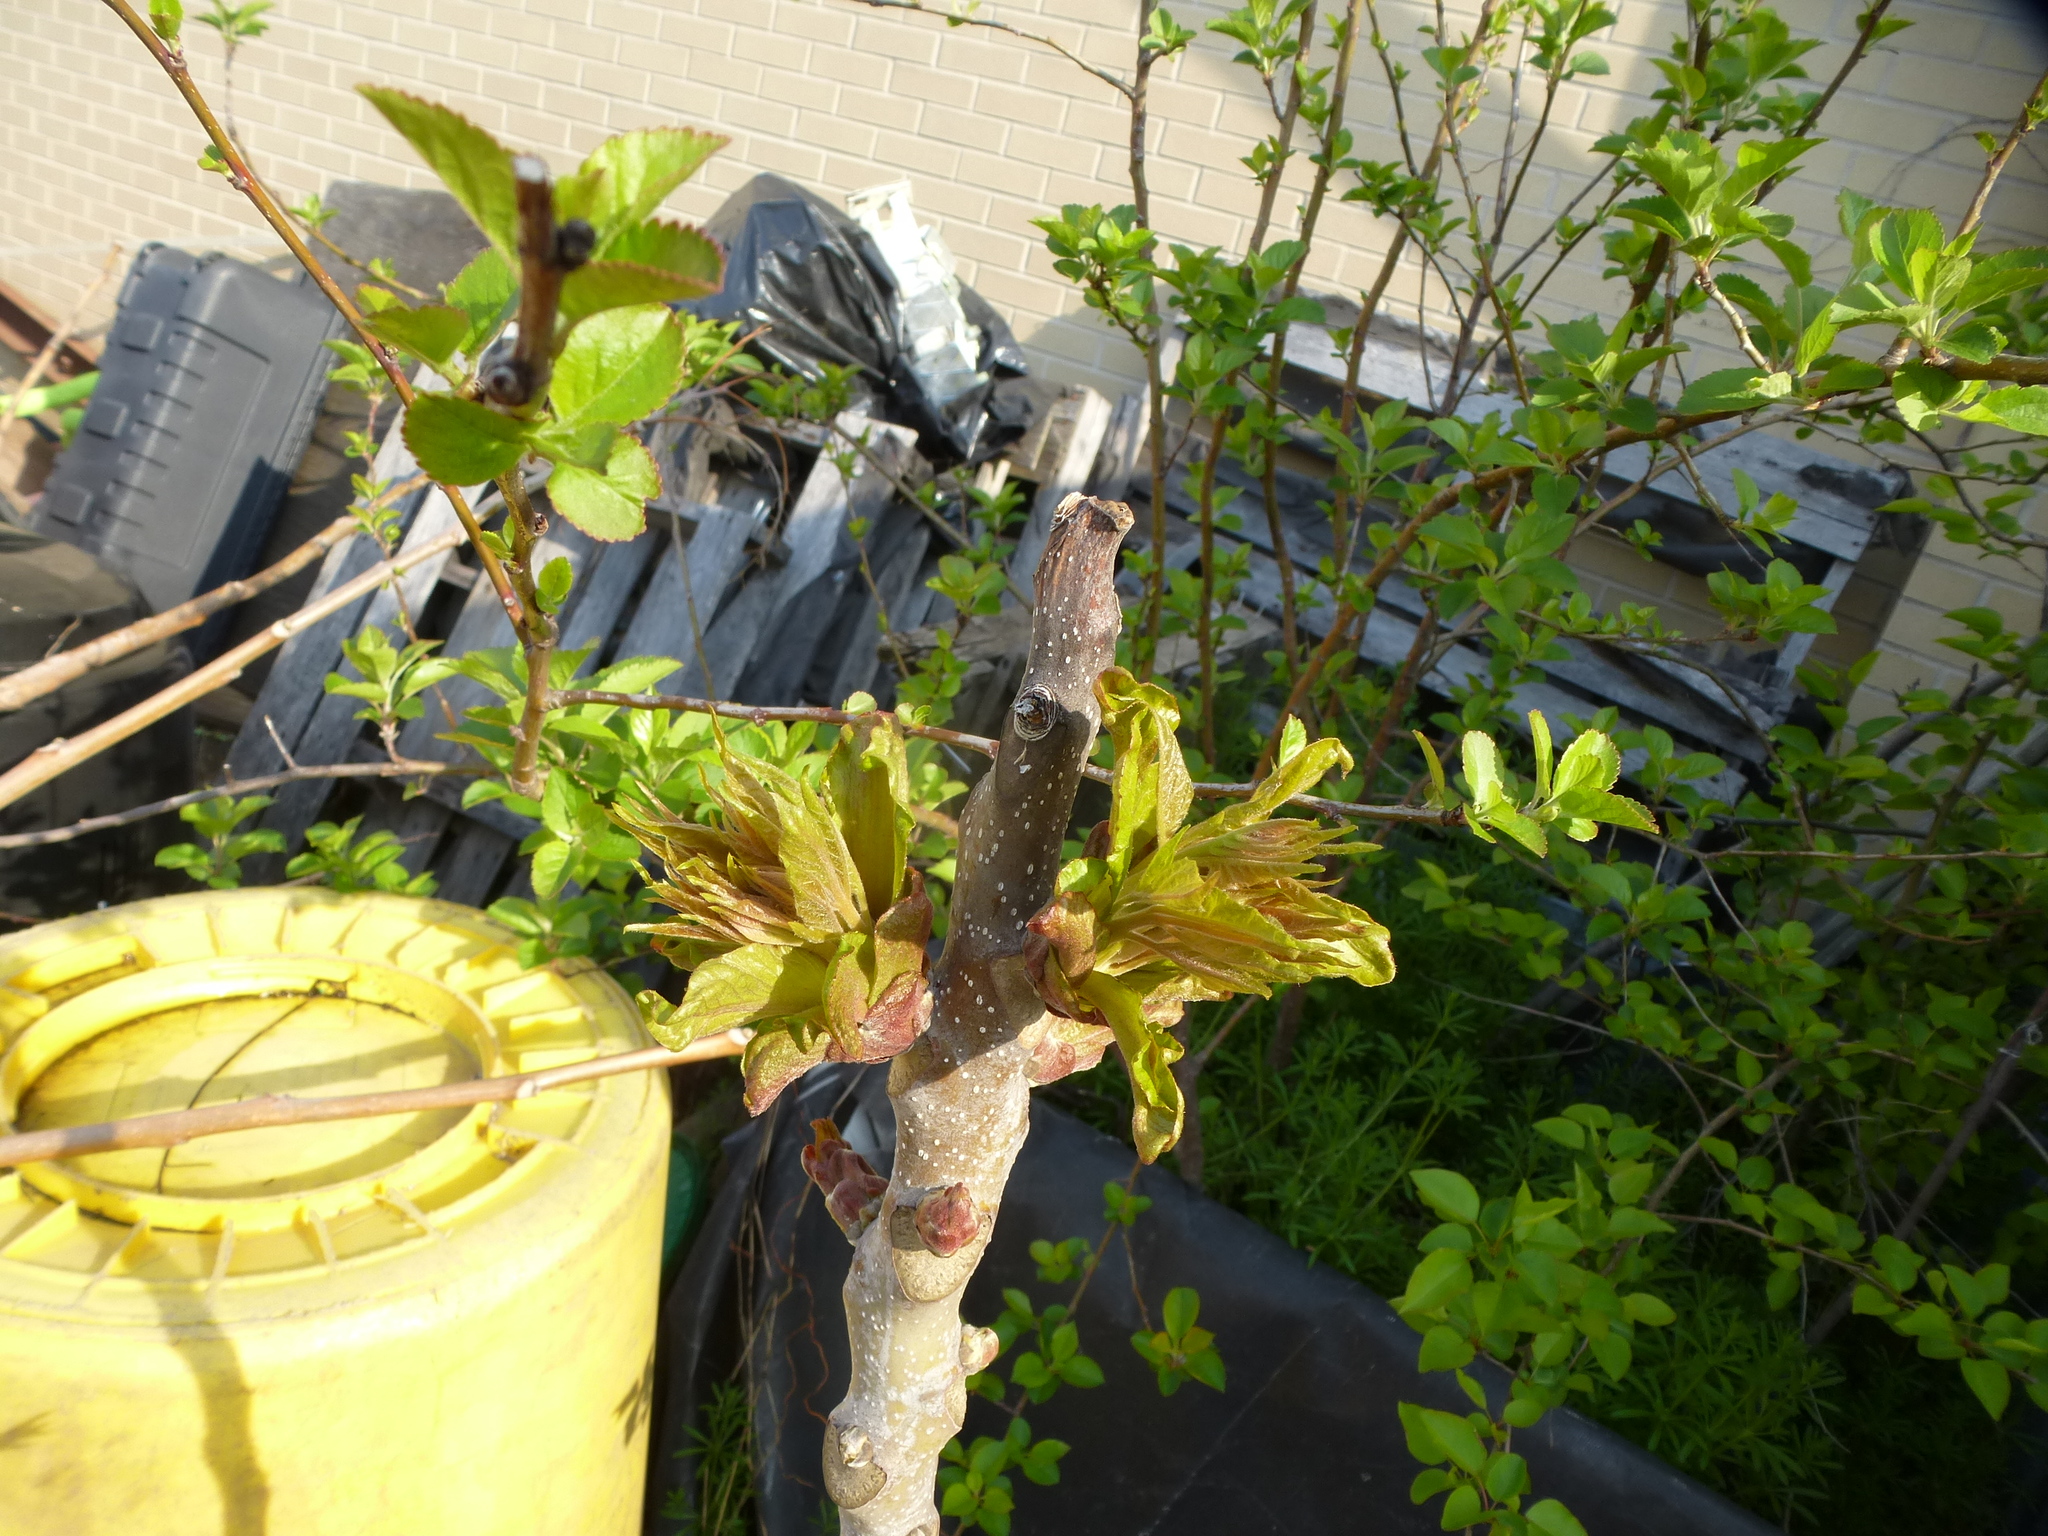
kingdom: Plantae
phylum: Tracheophyta
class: Magnoliopsida
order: Sapindales
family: Simaroubaceae
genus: Ailanthus
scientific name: Ailanthus altissima
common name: Tree-of-heaven
